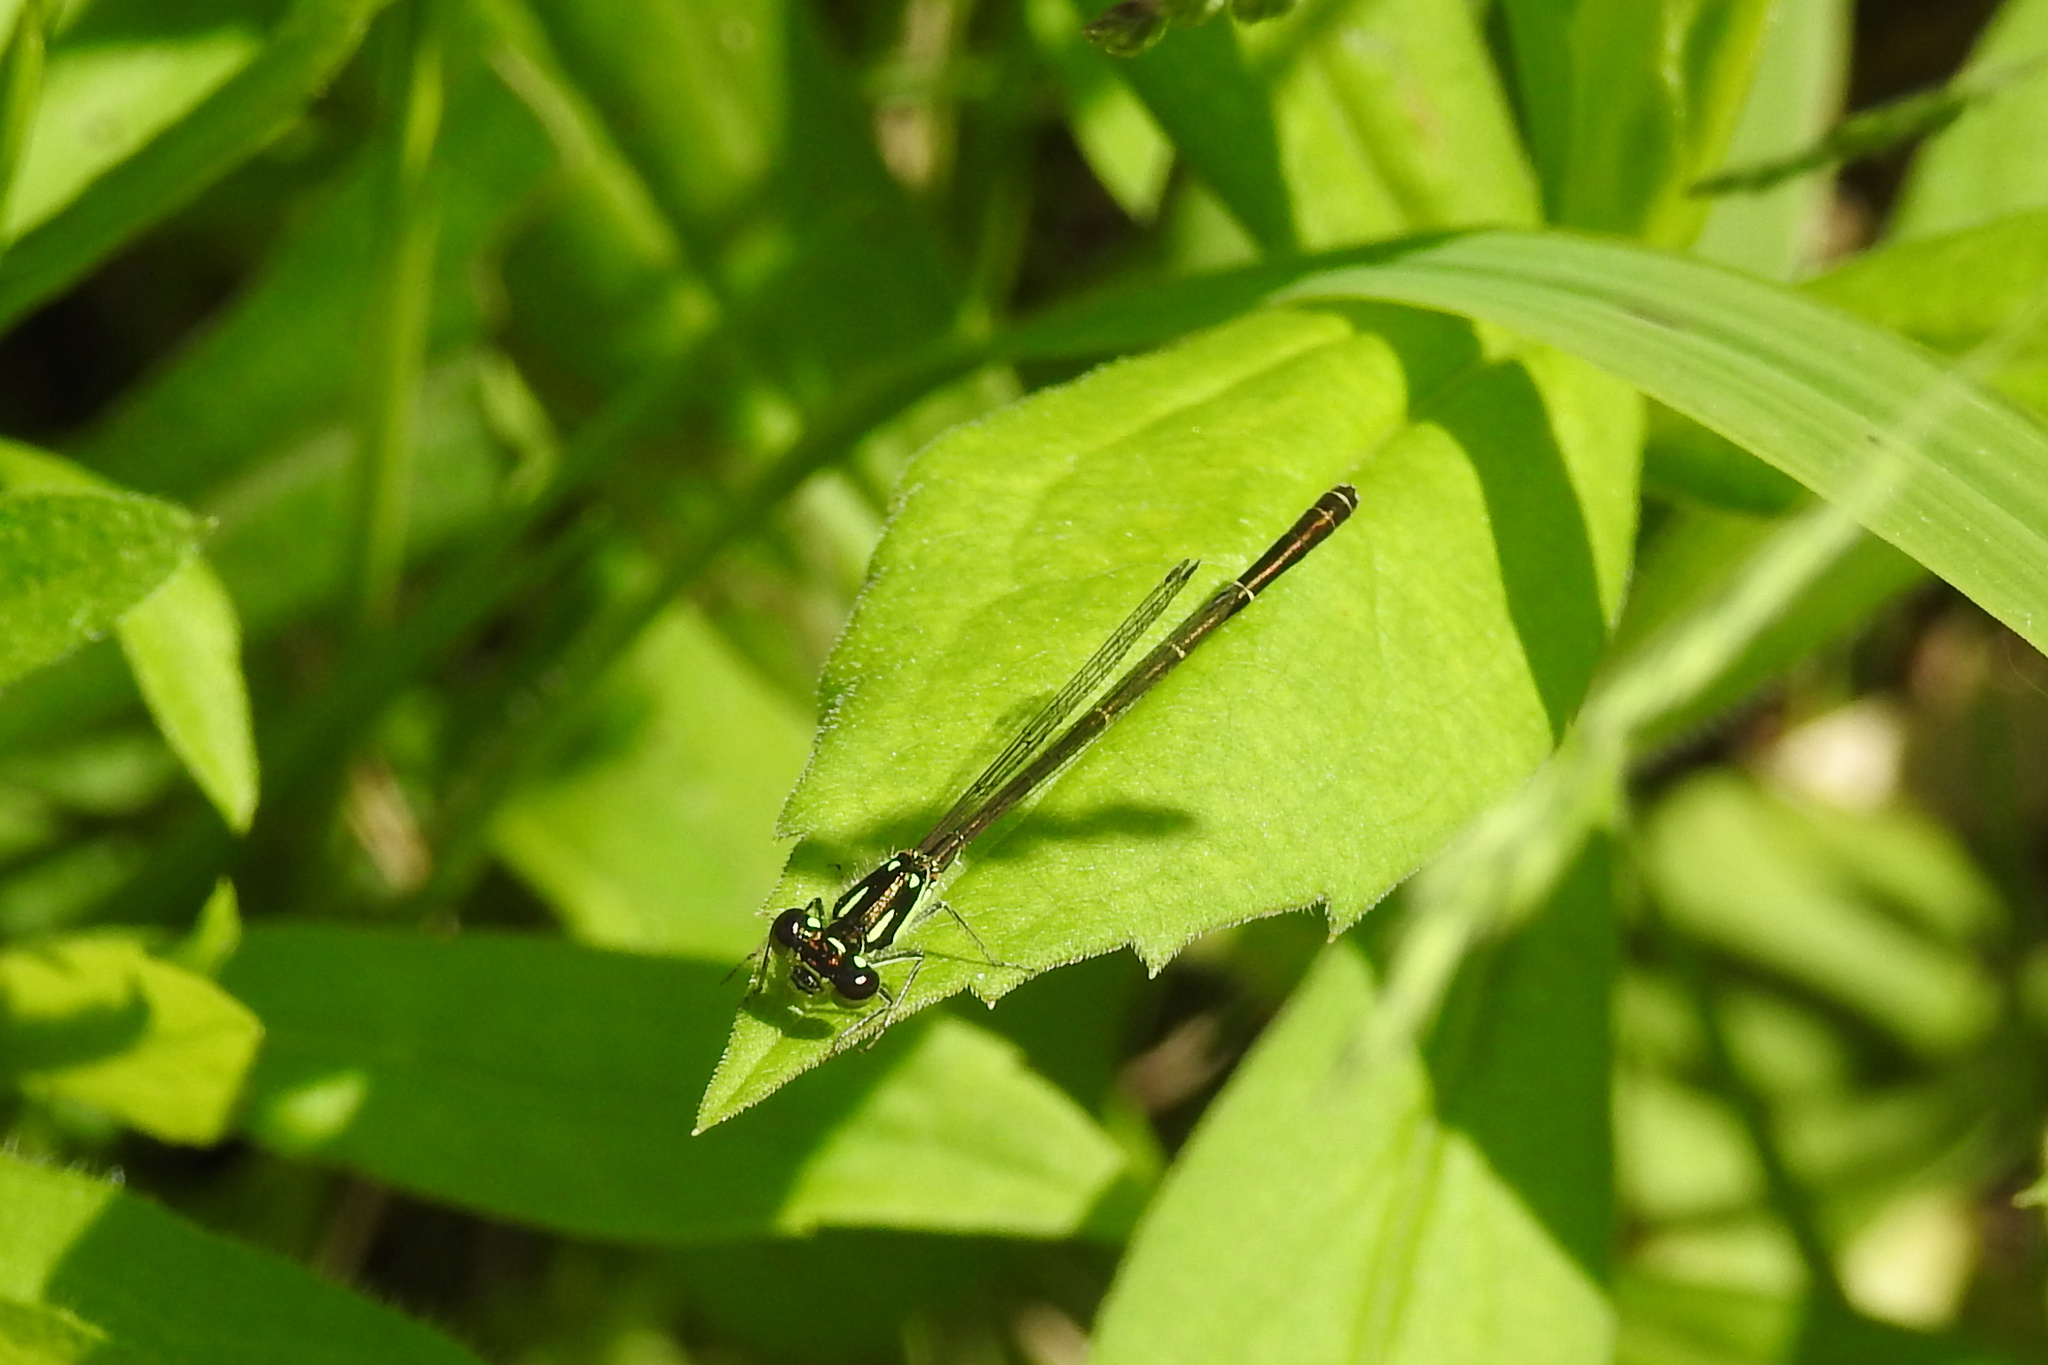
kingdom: Animalia
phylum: Arthropoda
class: Insecta
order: Odonata
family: Coenagrionidae
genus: Ischnura
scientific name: Ischnura posita
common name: Fragile forktail
